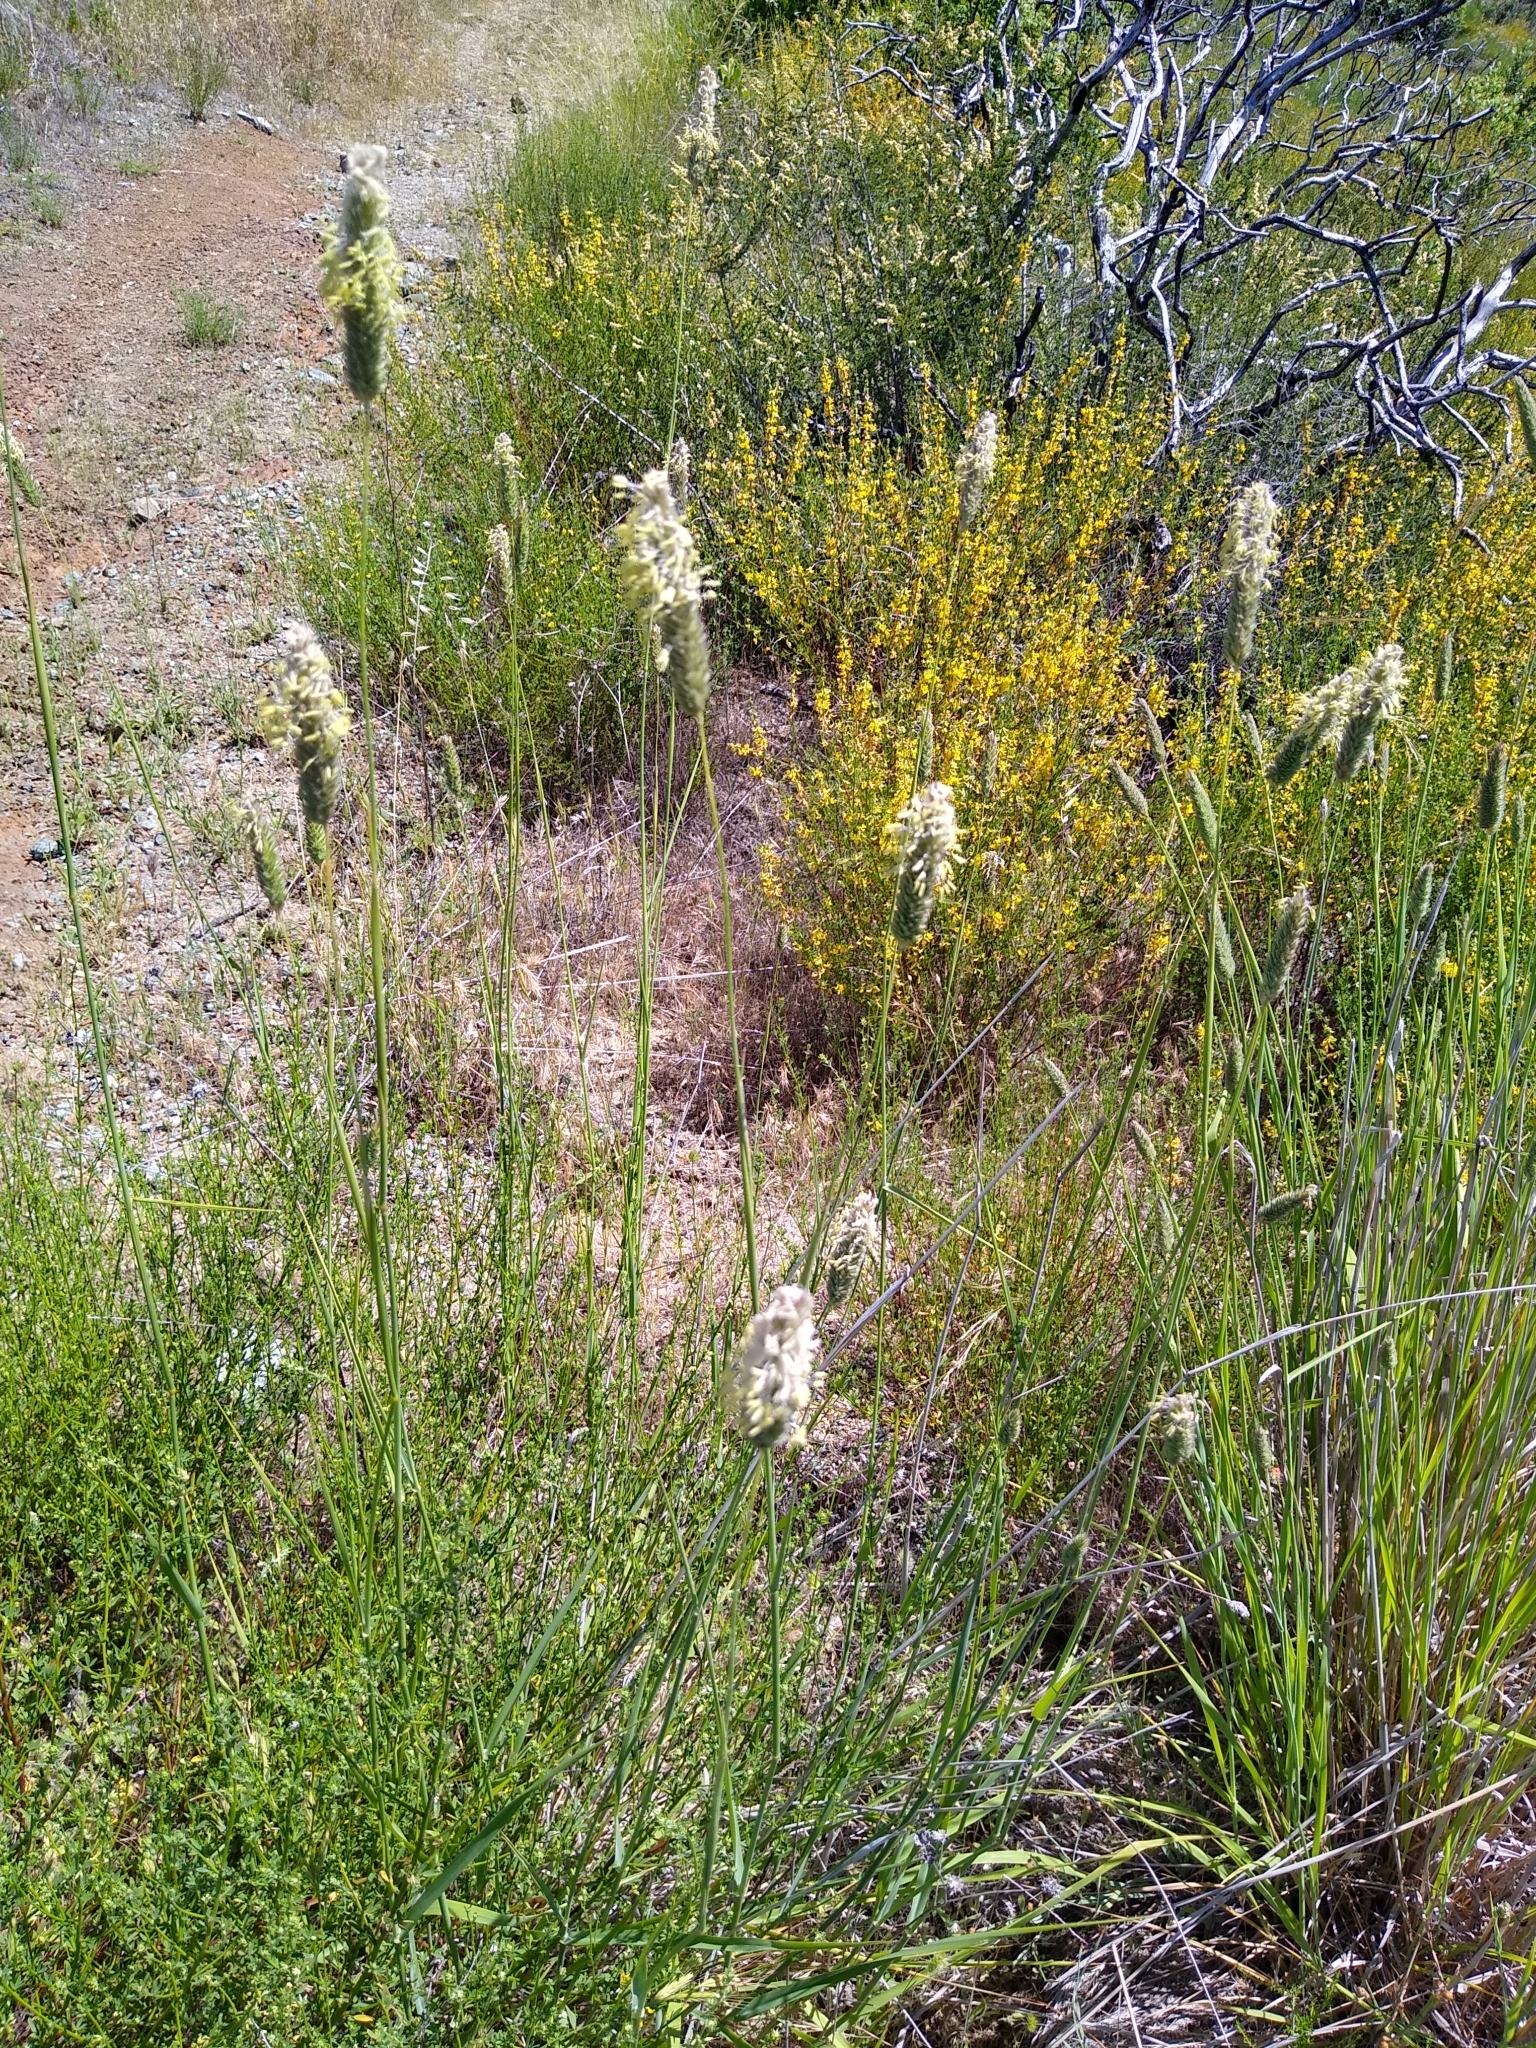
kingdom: Plantae
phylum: Tracheophyta
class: Liliopsida
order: Poales
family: Poaceae
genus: Phalaris
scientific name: Phalaris aquatica
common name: Bulbous canary-grass
